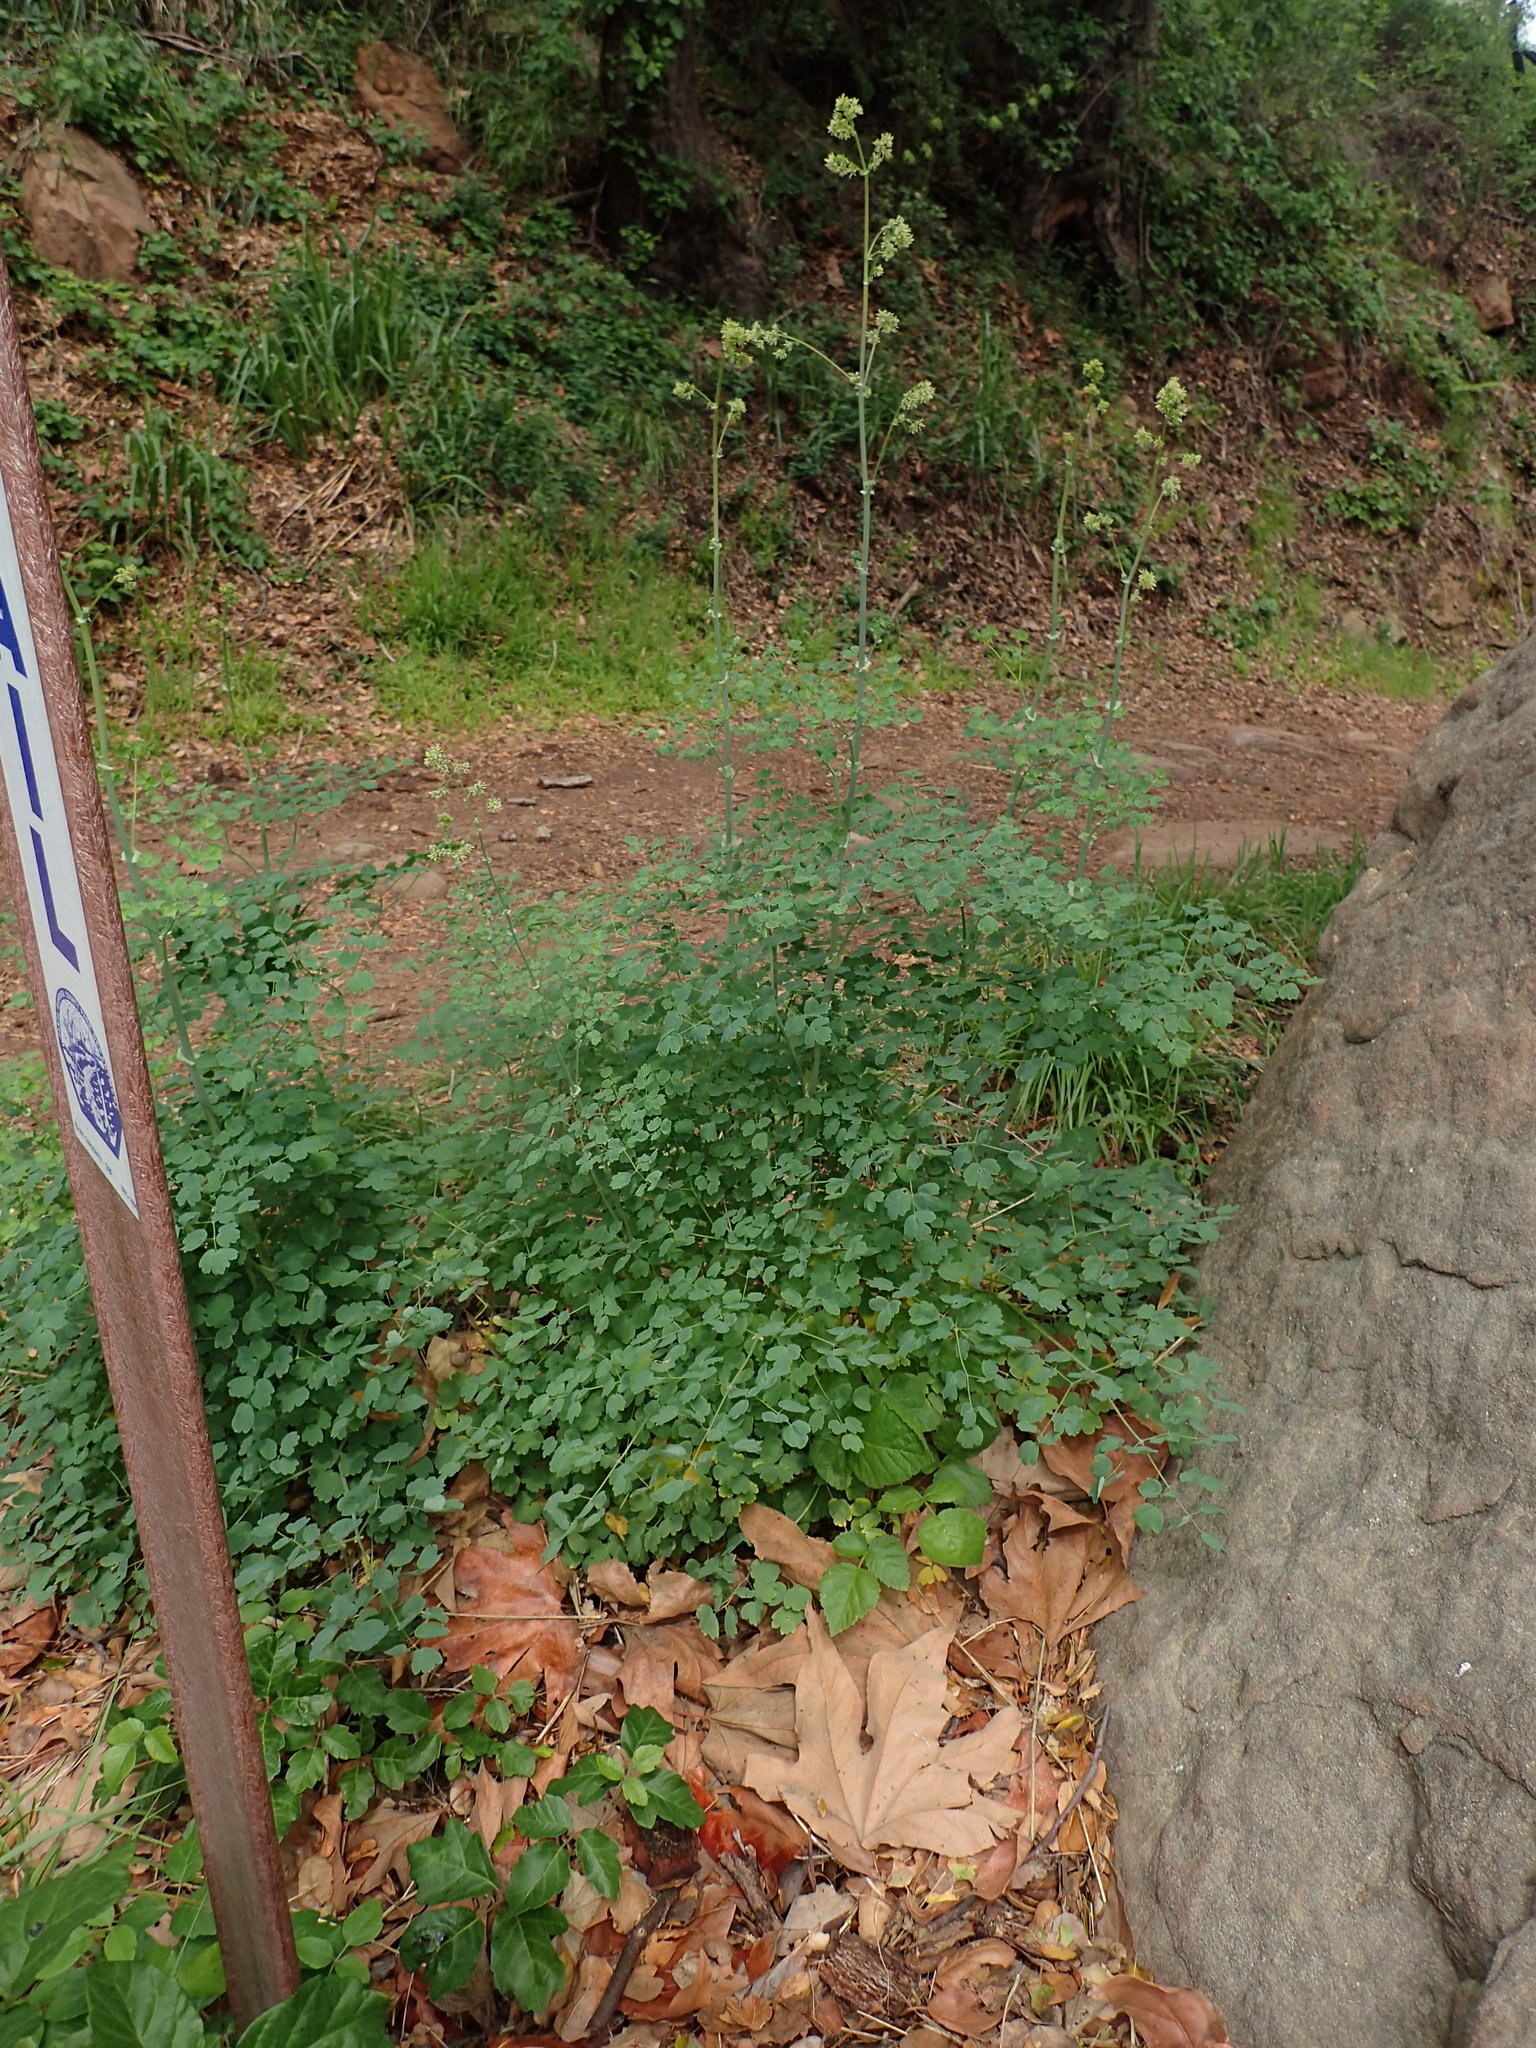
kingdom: Plantae
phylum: Tracheophyta
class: Magnoliopsida
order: Ranunculales
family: Ranunculaceae
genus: Thalictrum
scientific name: Thalictrum fendleri
